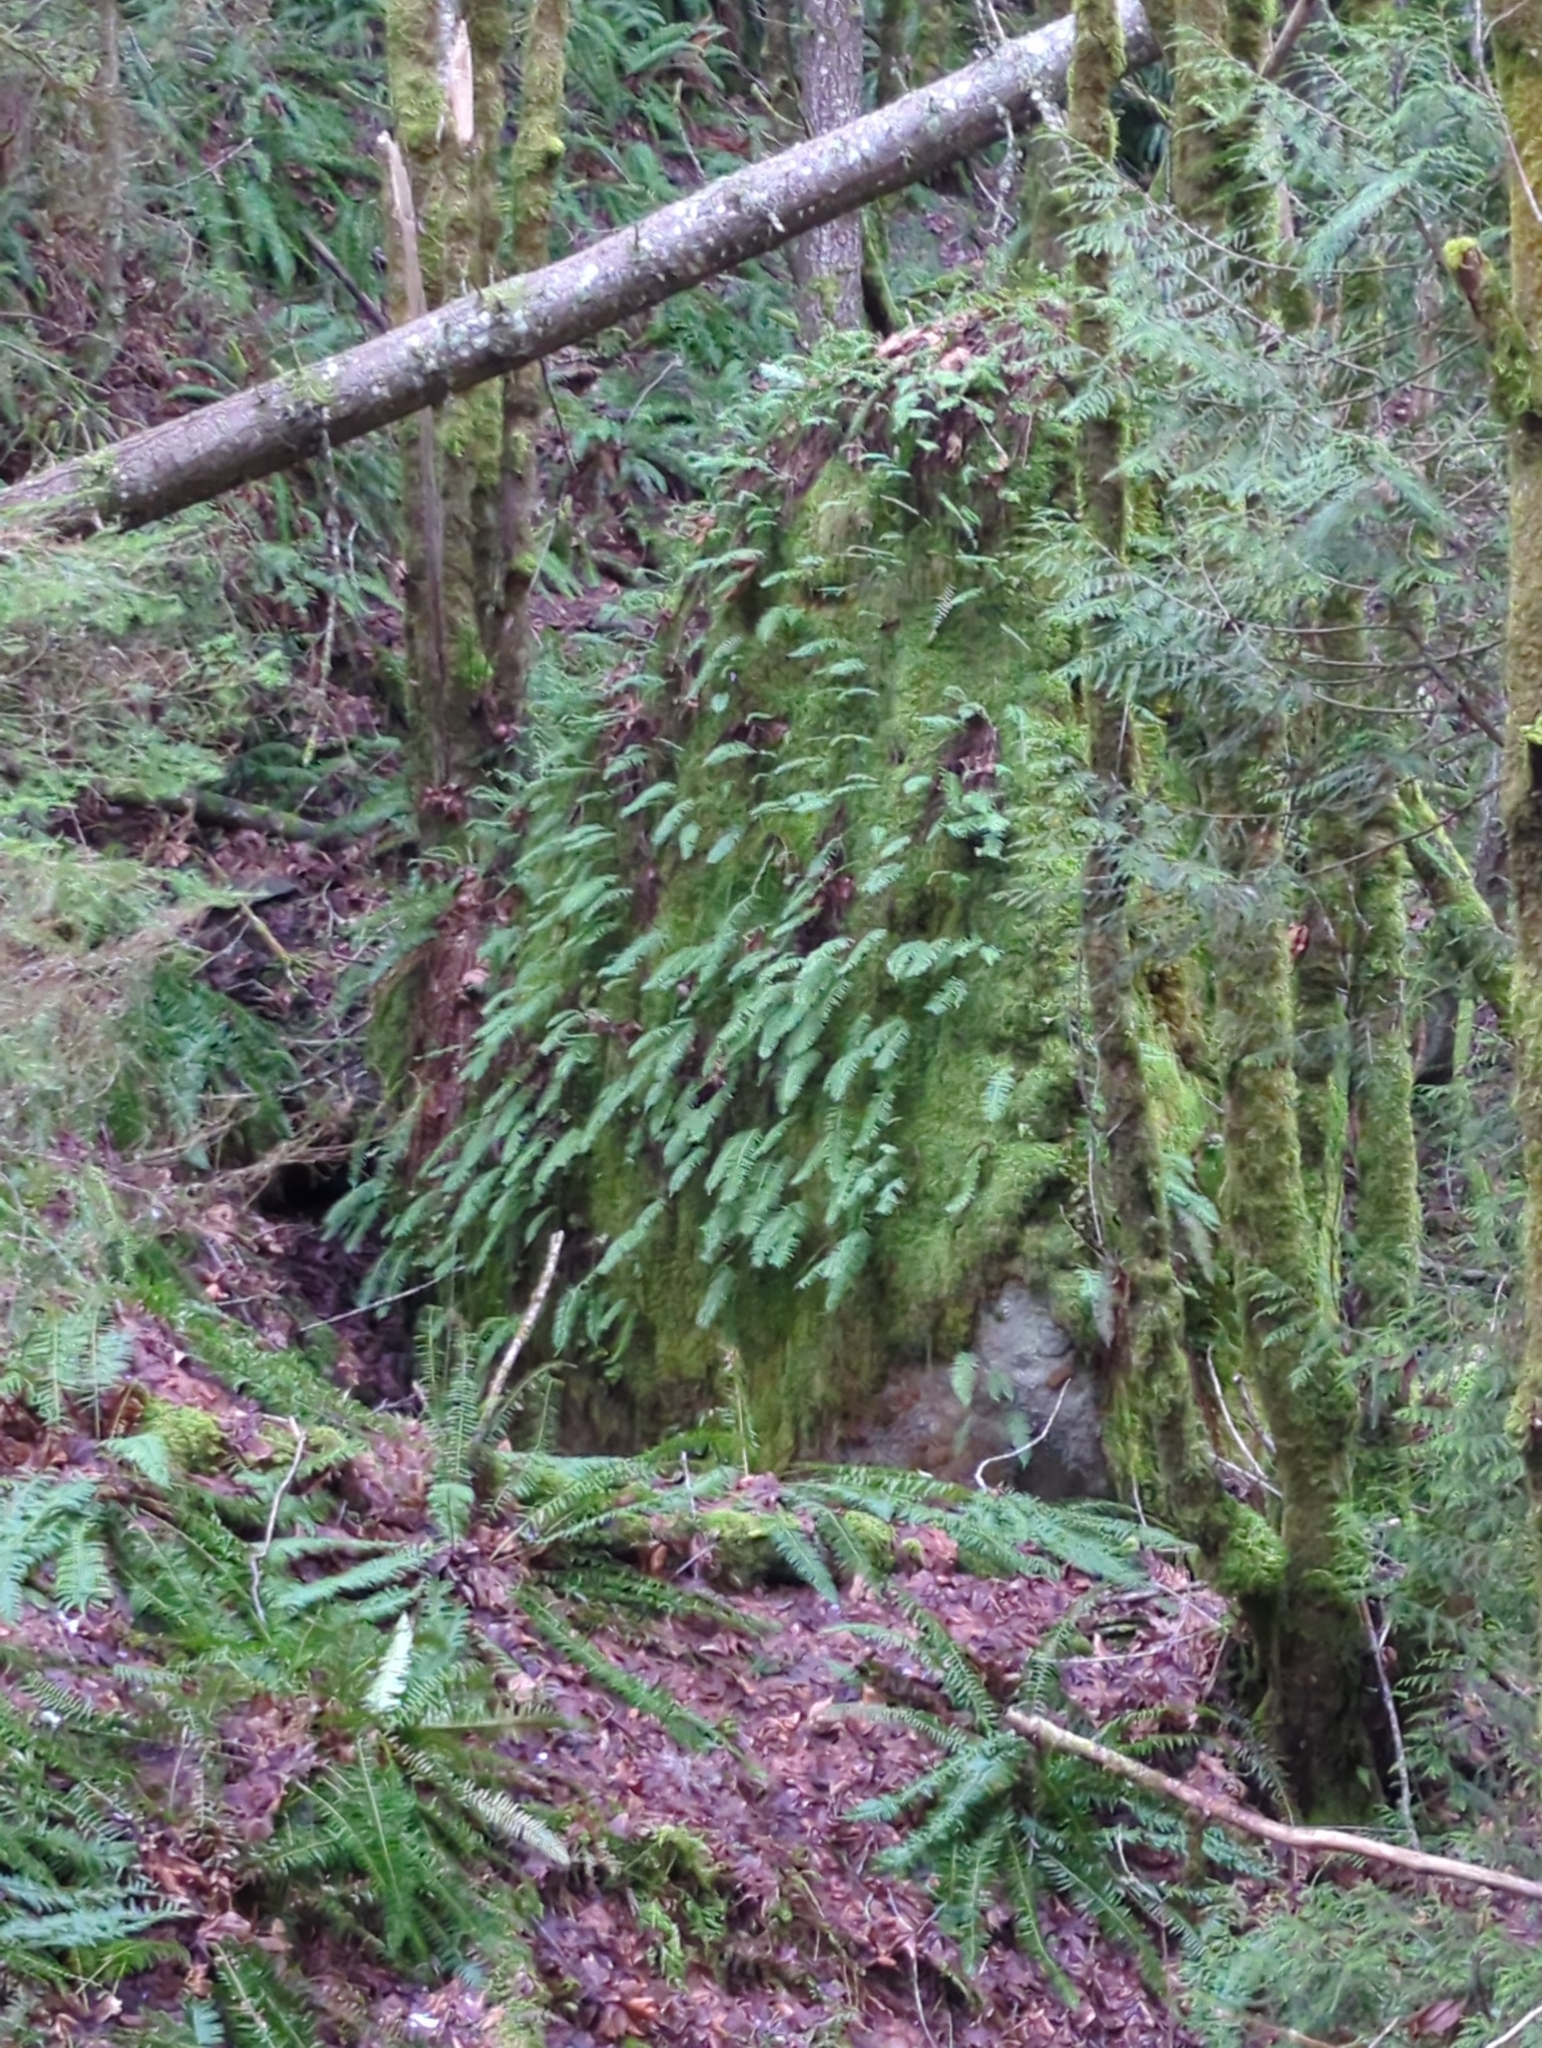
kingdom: Plantae
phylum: Tracheophyta
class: Polypodiopsida
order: Polypodiales
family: Polypodiaceae
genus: Polypodium
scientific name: Polypodium glycyrrhiza
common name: Licorice fern
